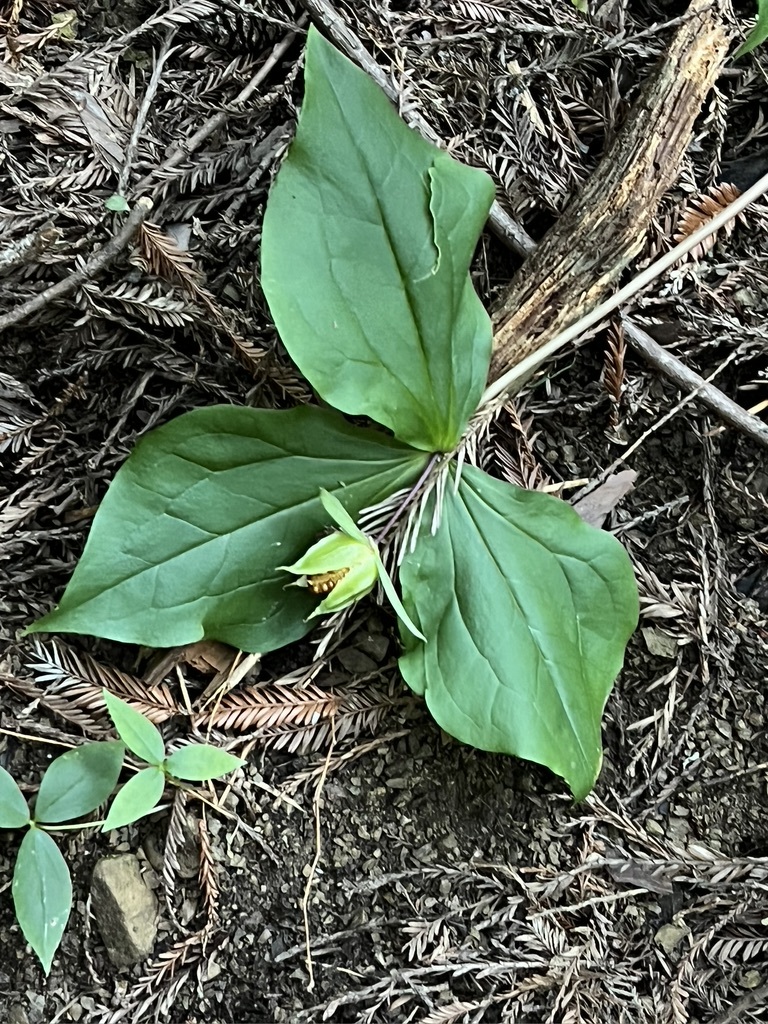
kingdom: Plantae
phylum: Tracheophyta
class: Liliopsida
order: Liliales
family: Melanthiaceae
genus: Trillium
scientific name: Trillium ovatum
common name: Pacific trillium
